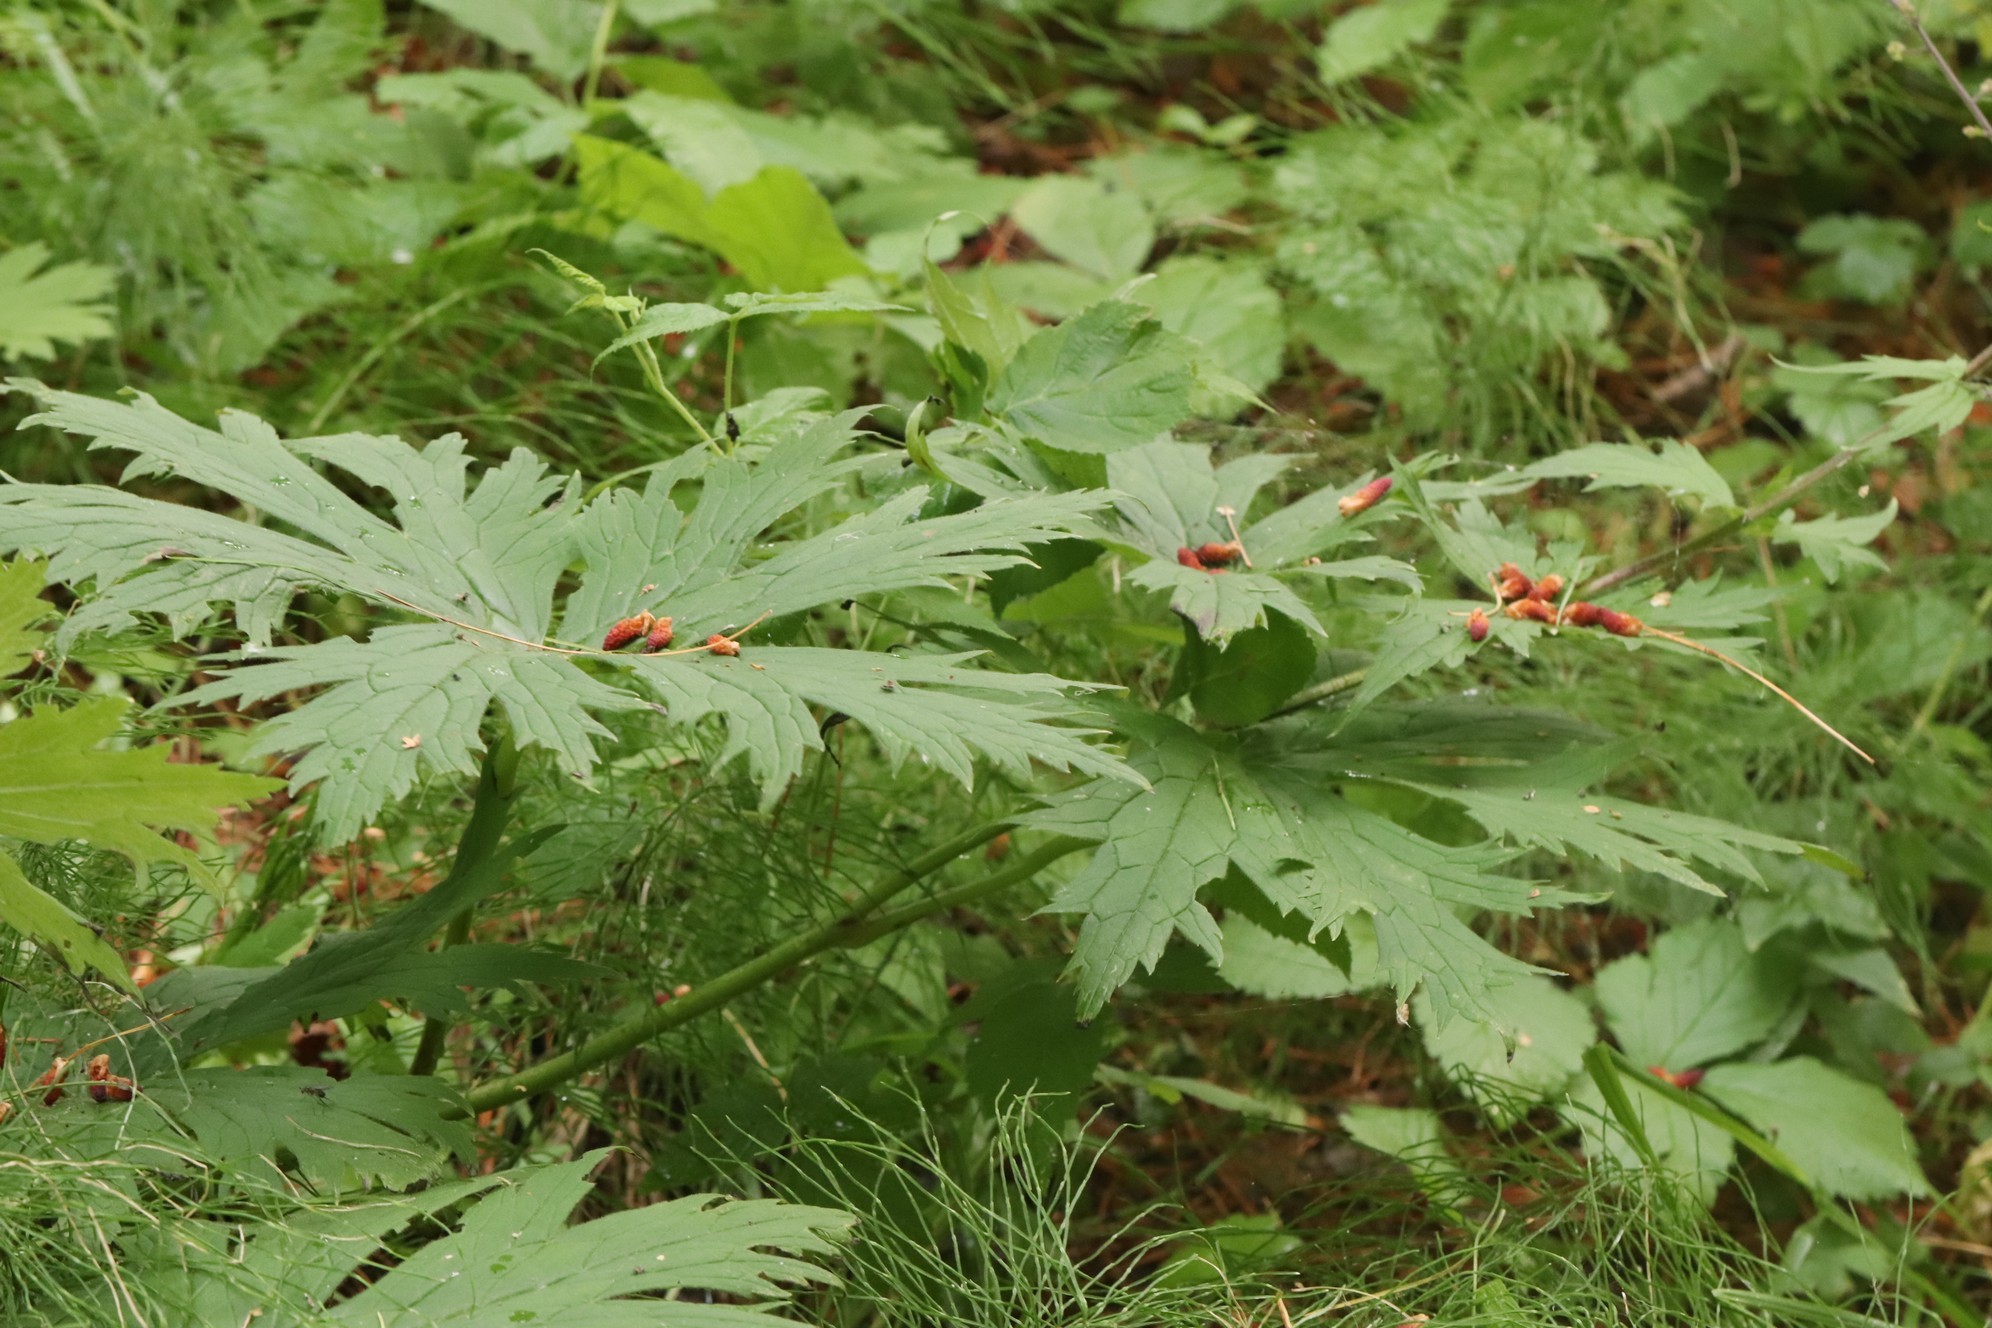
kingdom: Plantae
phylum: Tracheophyta
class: Magnoliopsida
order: Ranunculales
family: Ranunculaceae
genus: Aconitum
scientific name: Aconitum septentrionale
